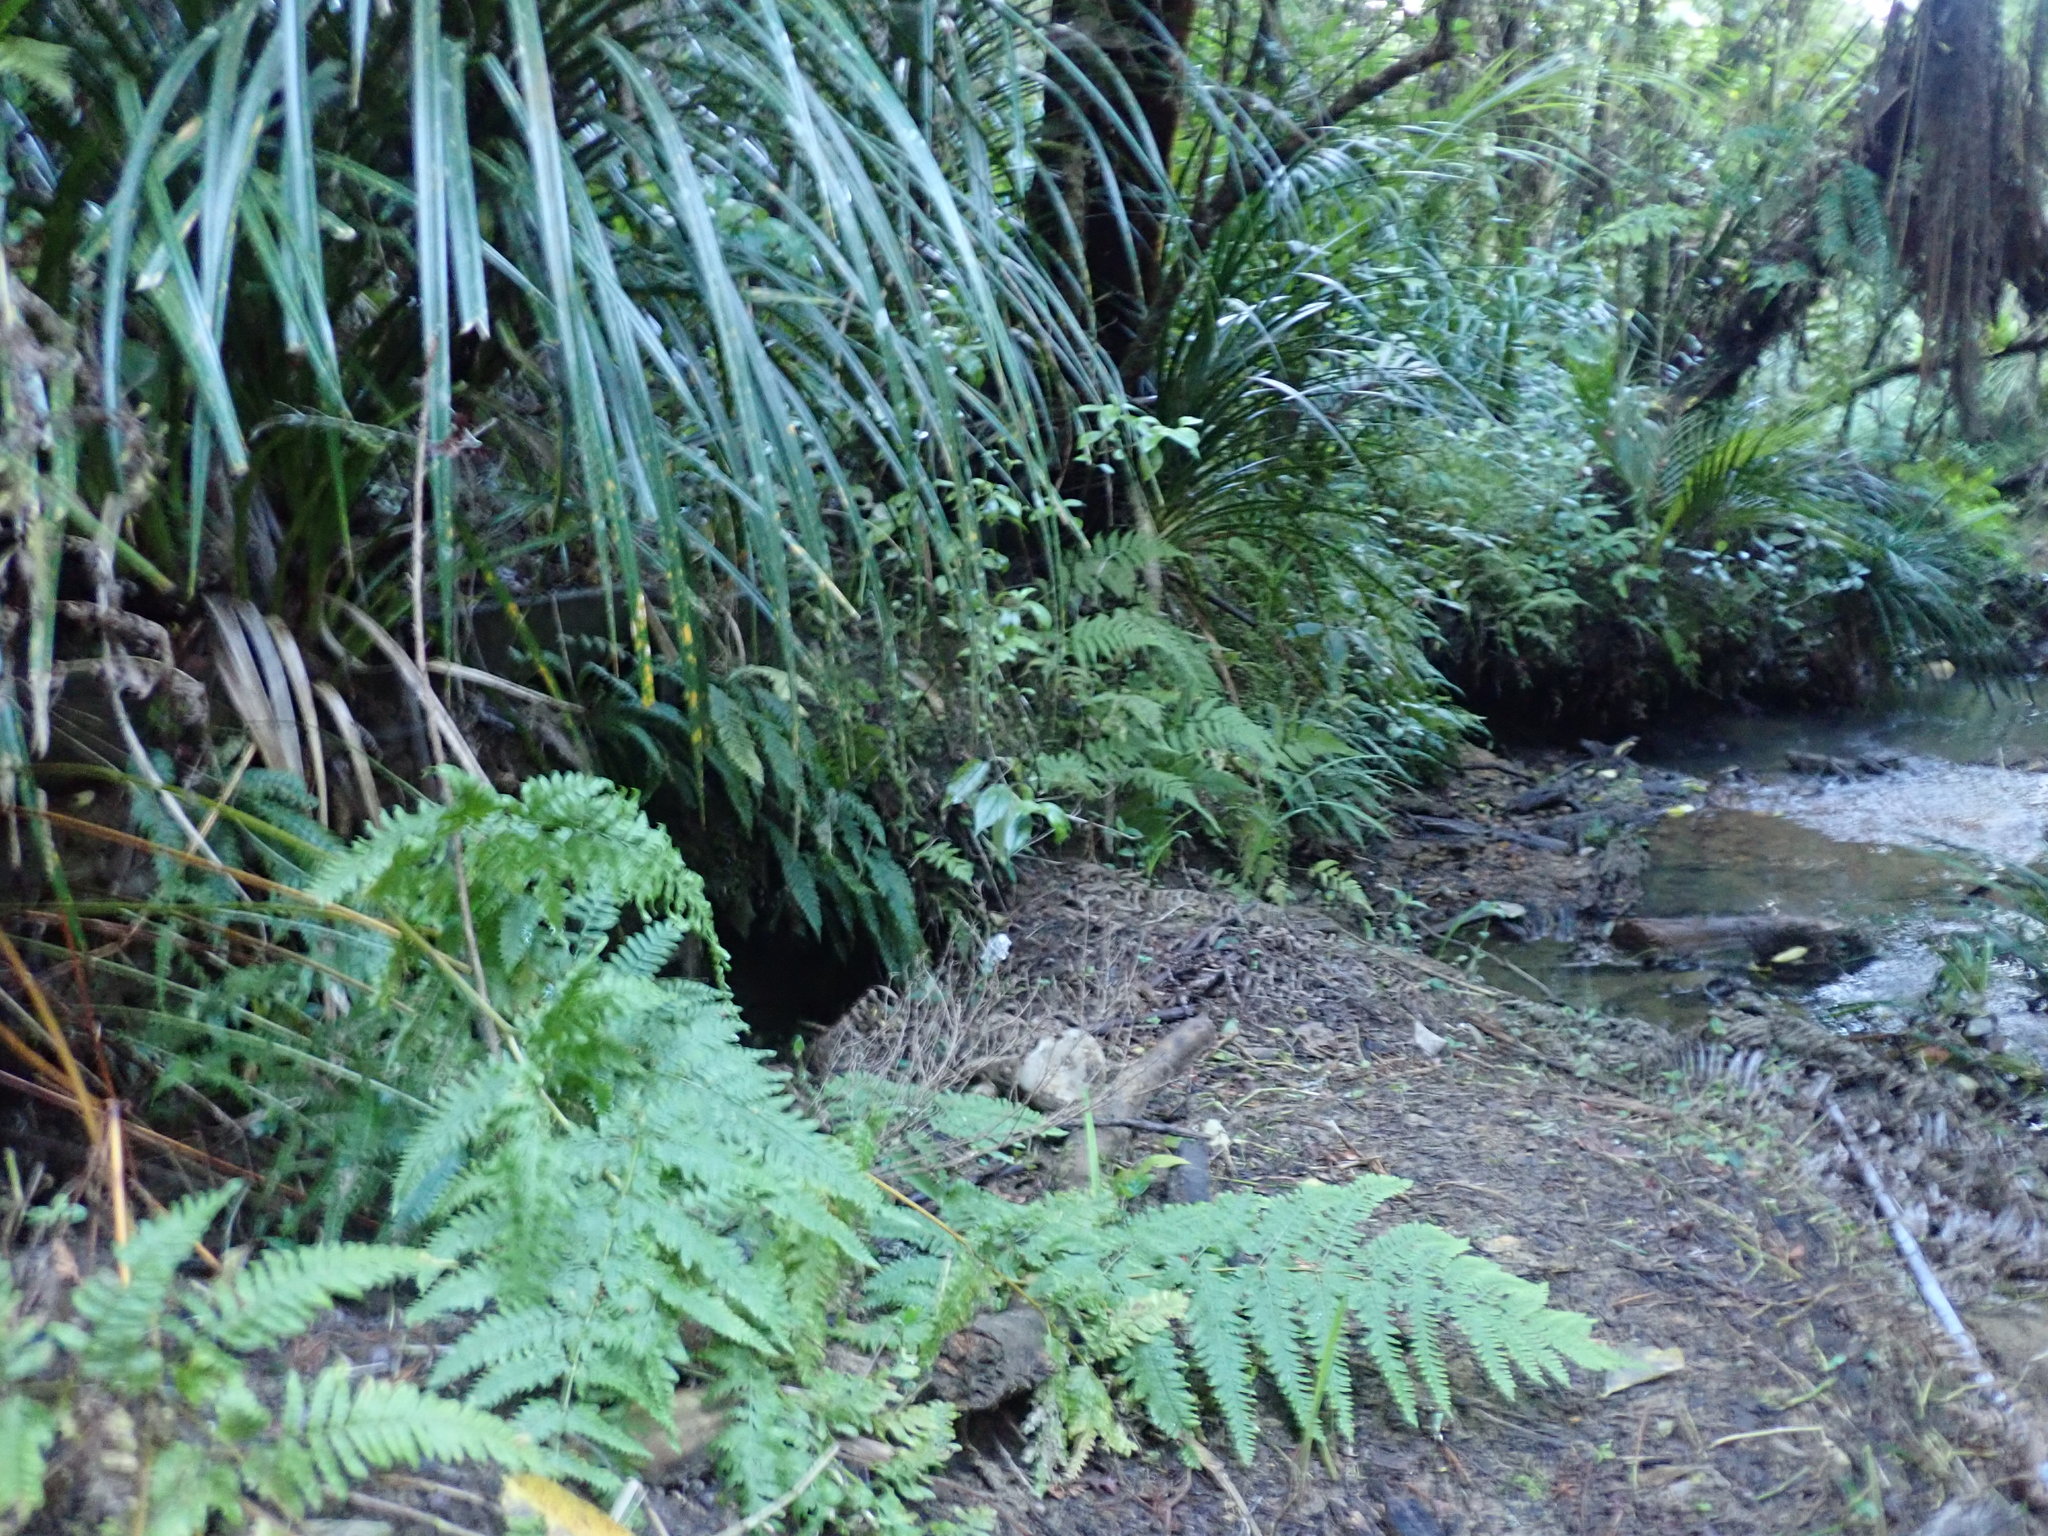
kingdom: Plantae
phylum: Tracheophyta
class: Polypodiopsida
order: Polypodiales
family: Pteridaceae
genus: Pteris
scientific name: Pteris tremula
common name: Australian brake
